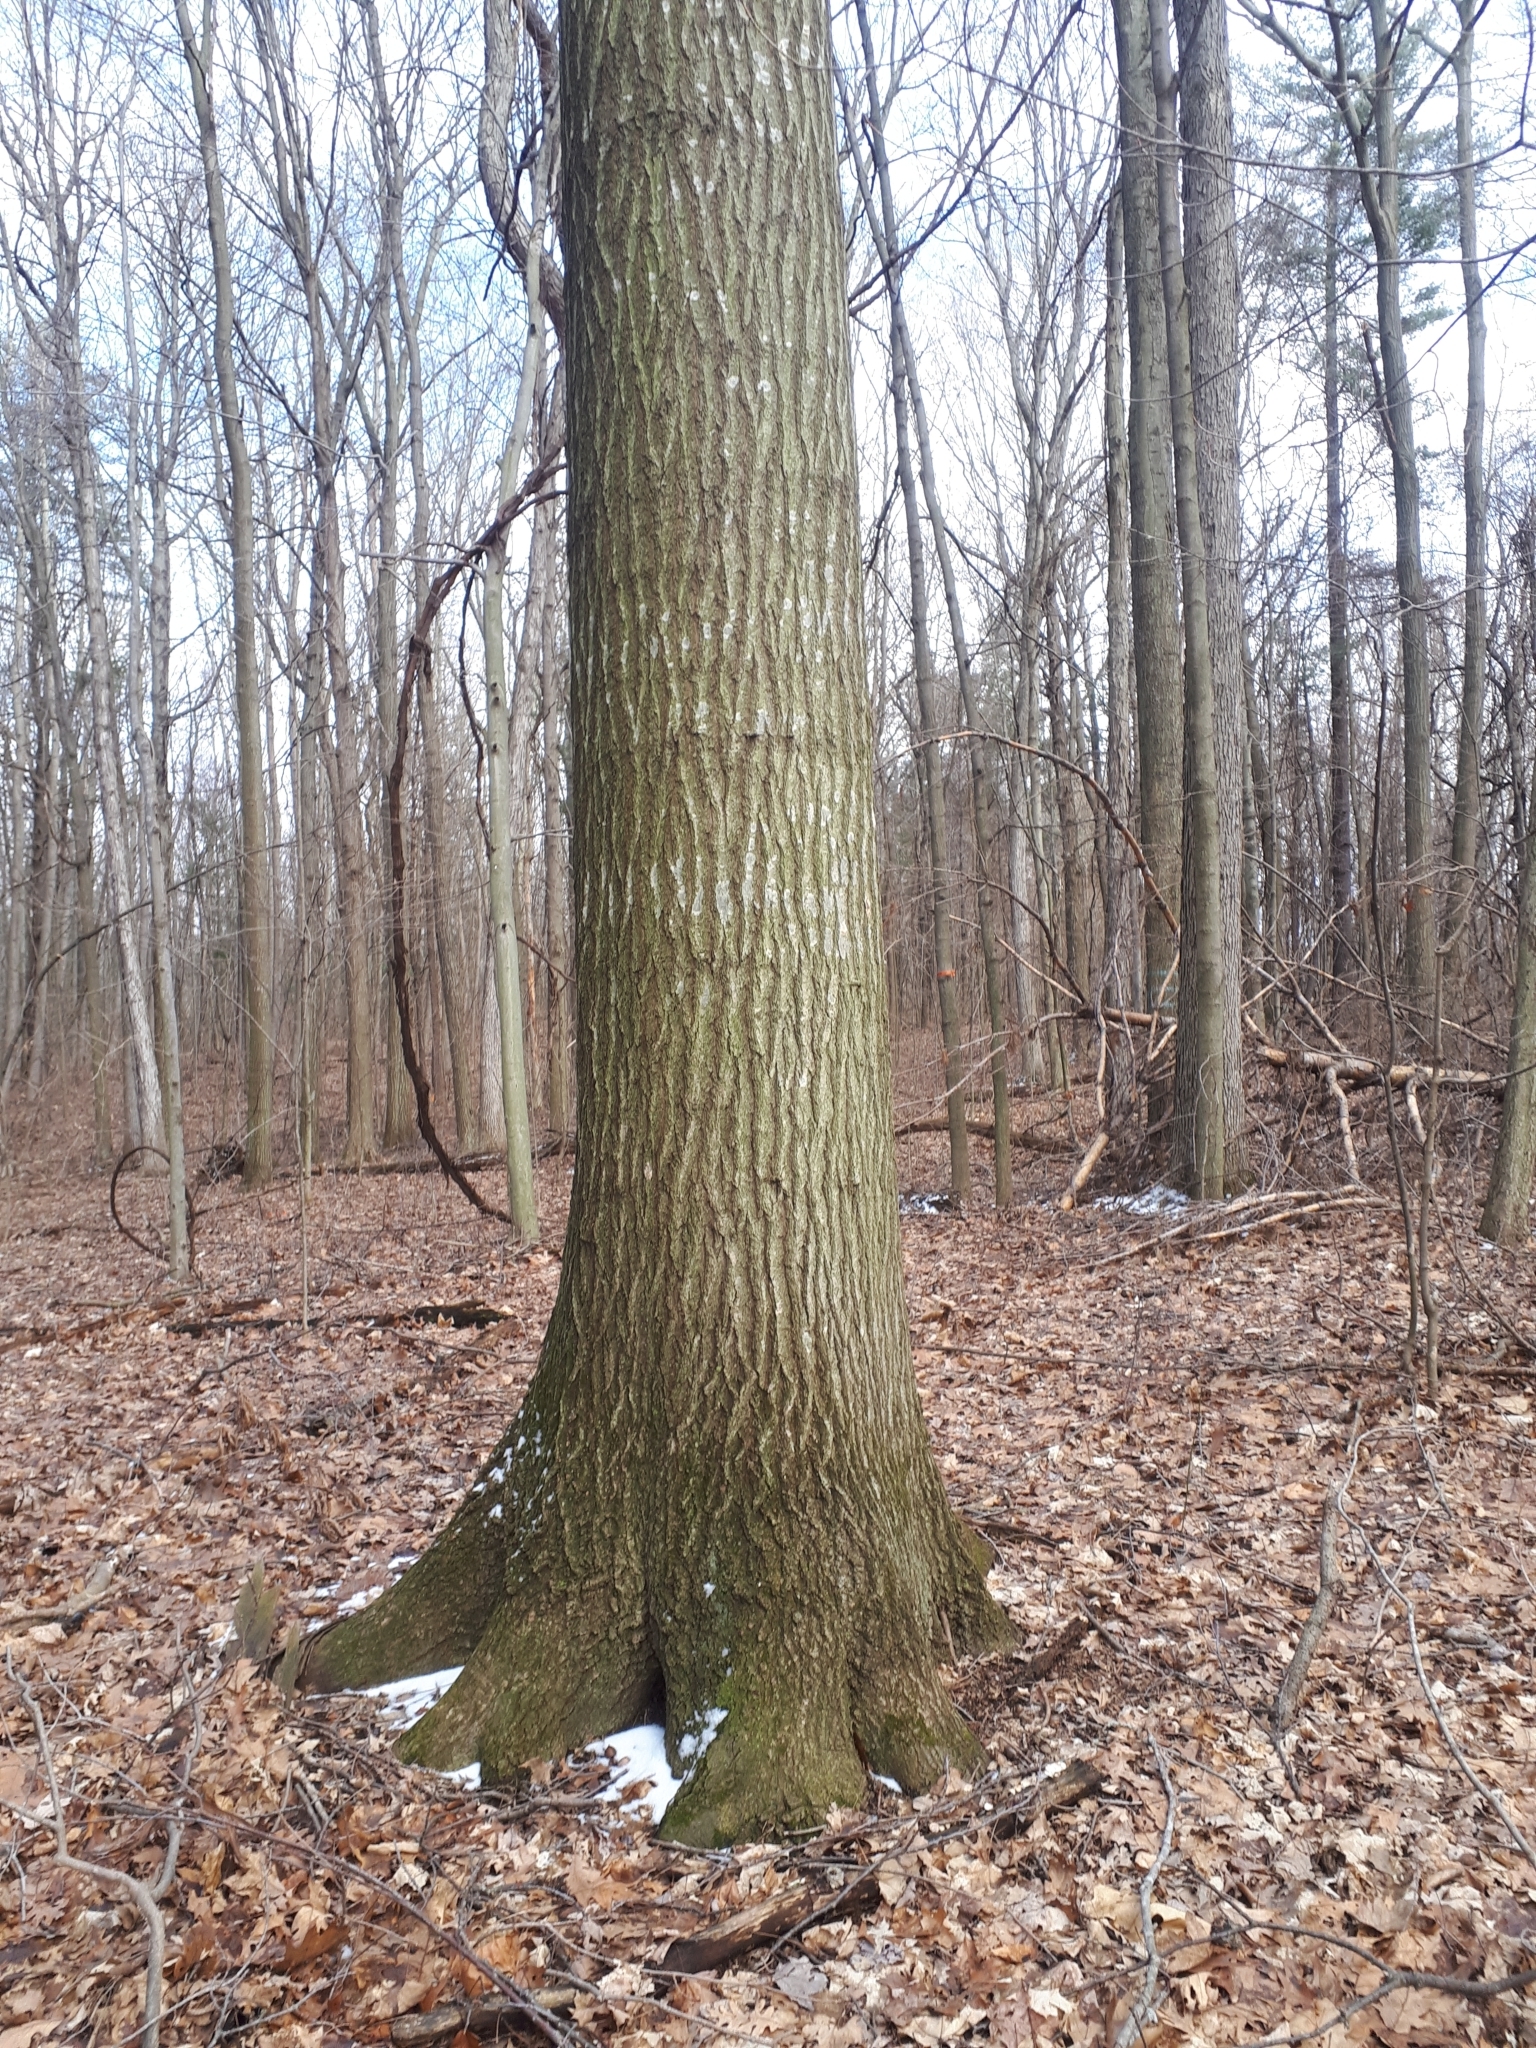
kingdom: Plantae
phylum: Tracheophyta
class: Magnoliopsida
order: Fagales
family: Fagaceae
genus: Quercus
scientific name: Quercus rubra
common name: Red oak
